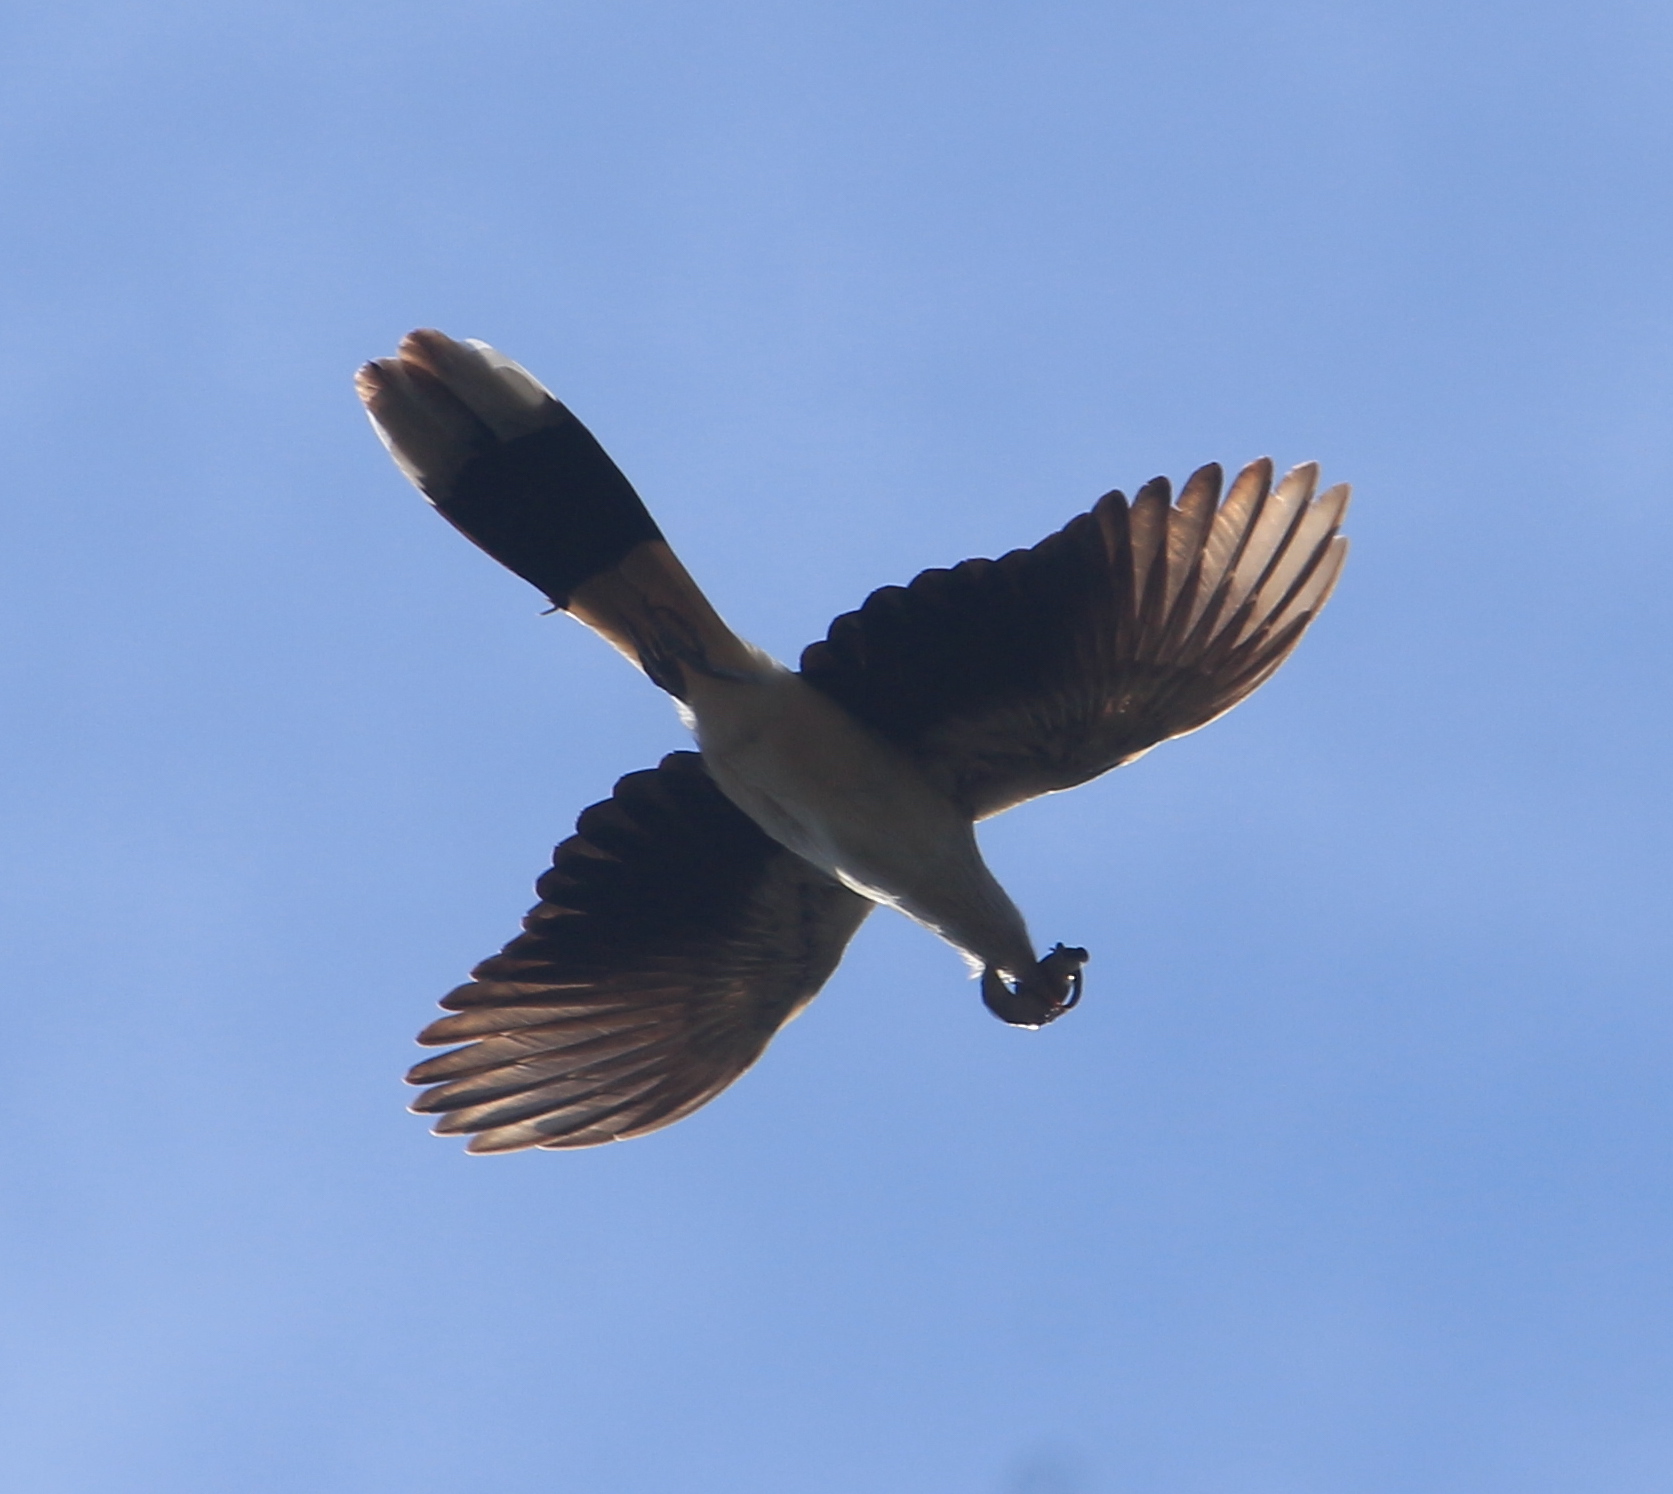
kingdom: Animalia
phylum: Chordata
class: Aves
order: Cuculiformes
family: Cuculidae
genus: Guira
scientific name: Guira guira
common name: Guira cuckoo
